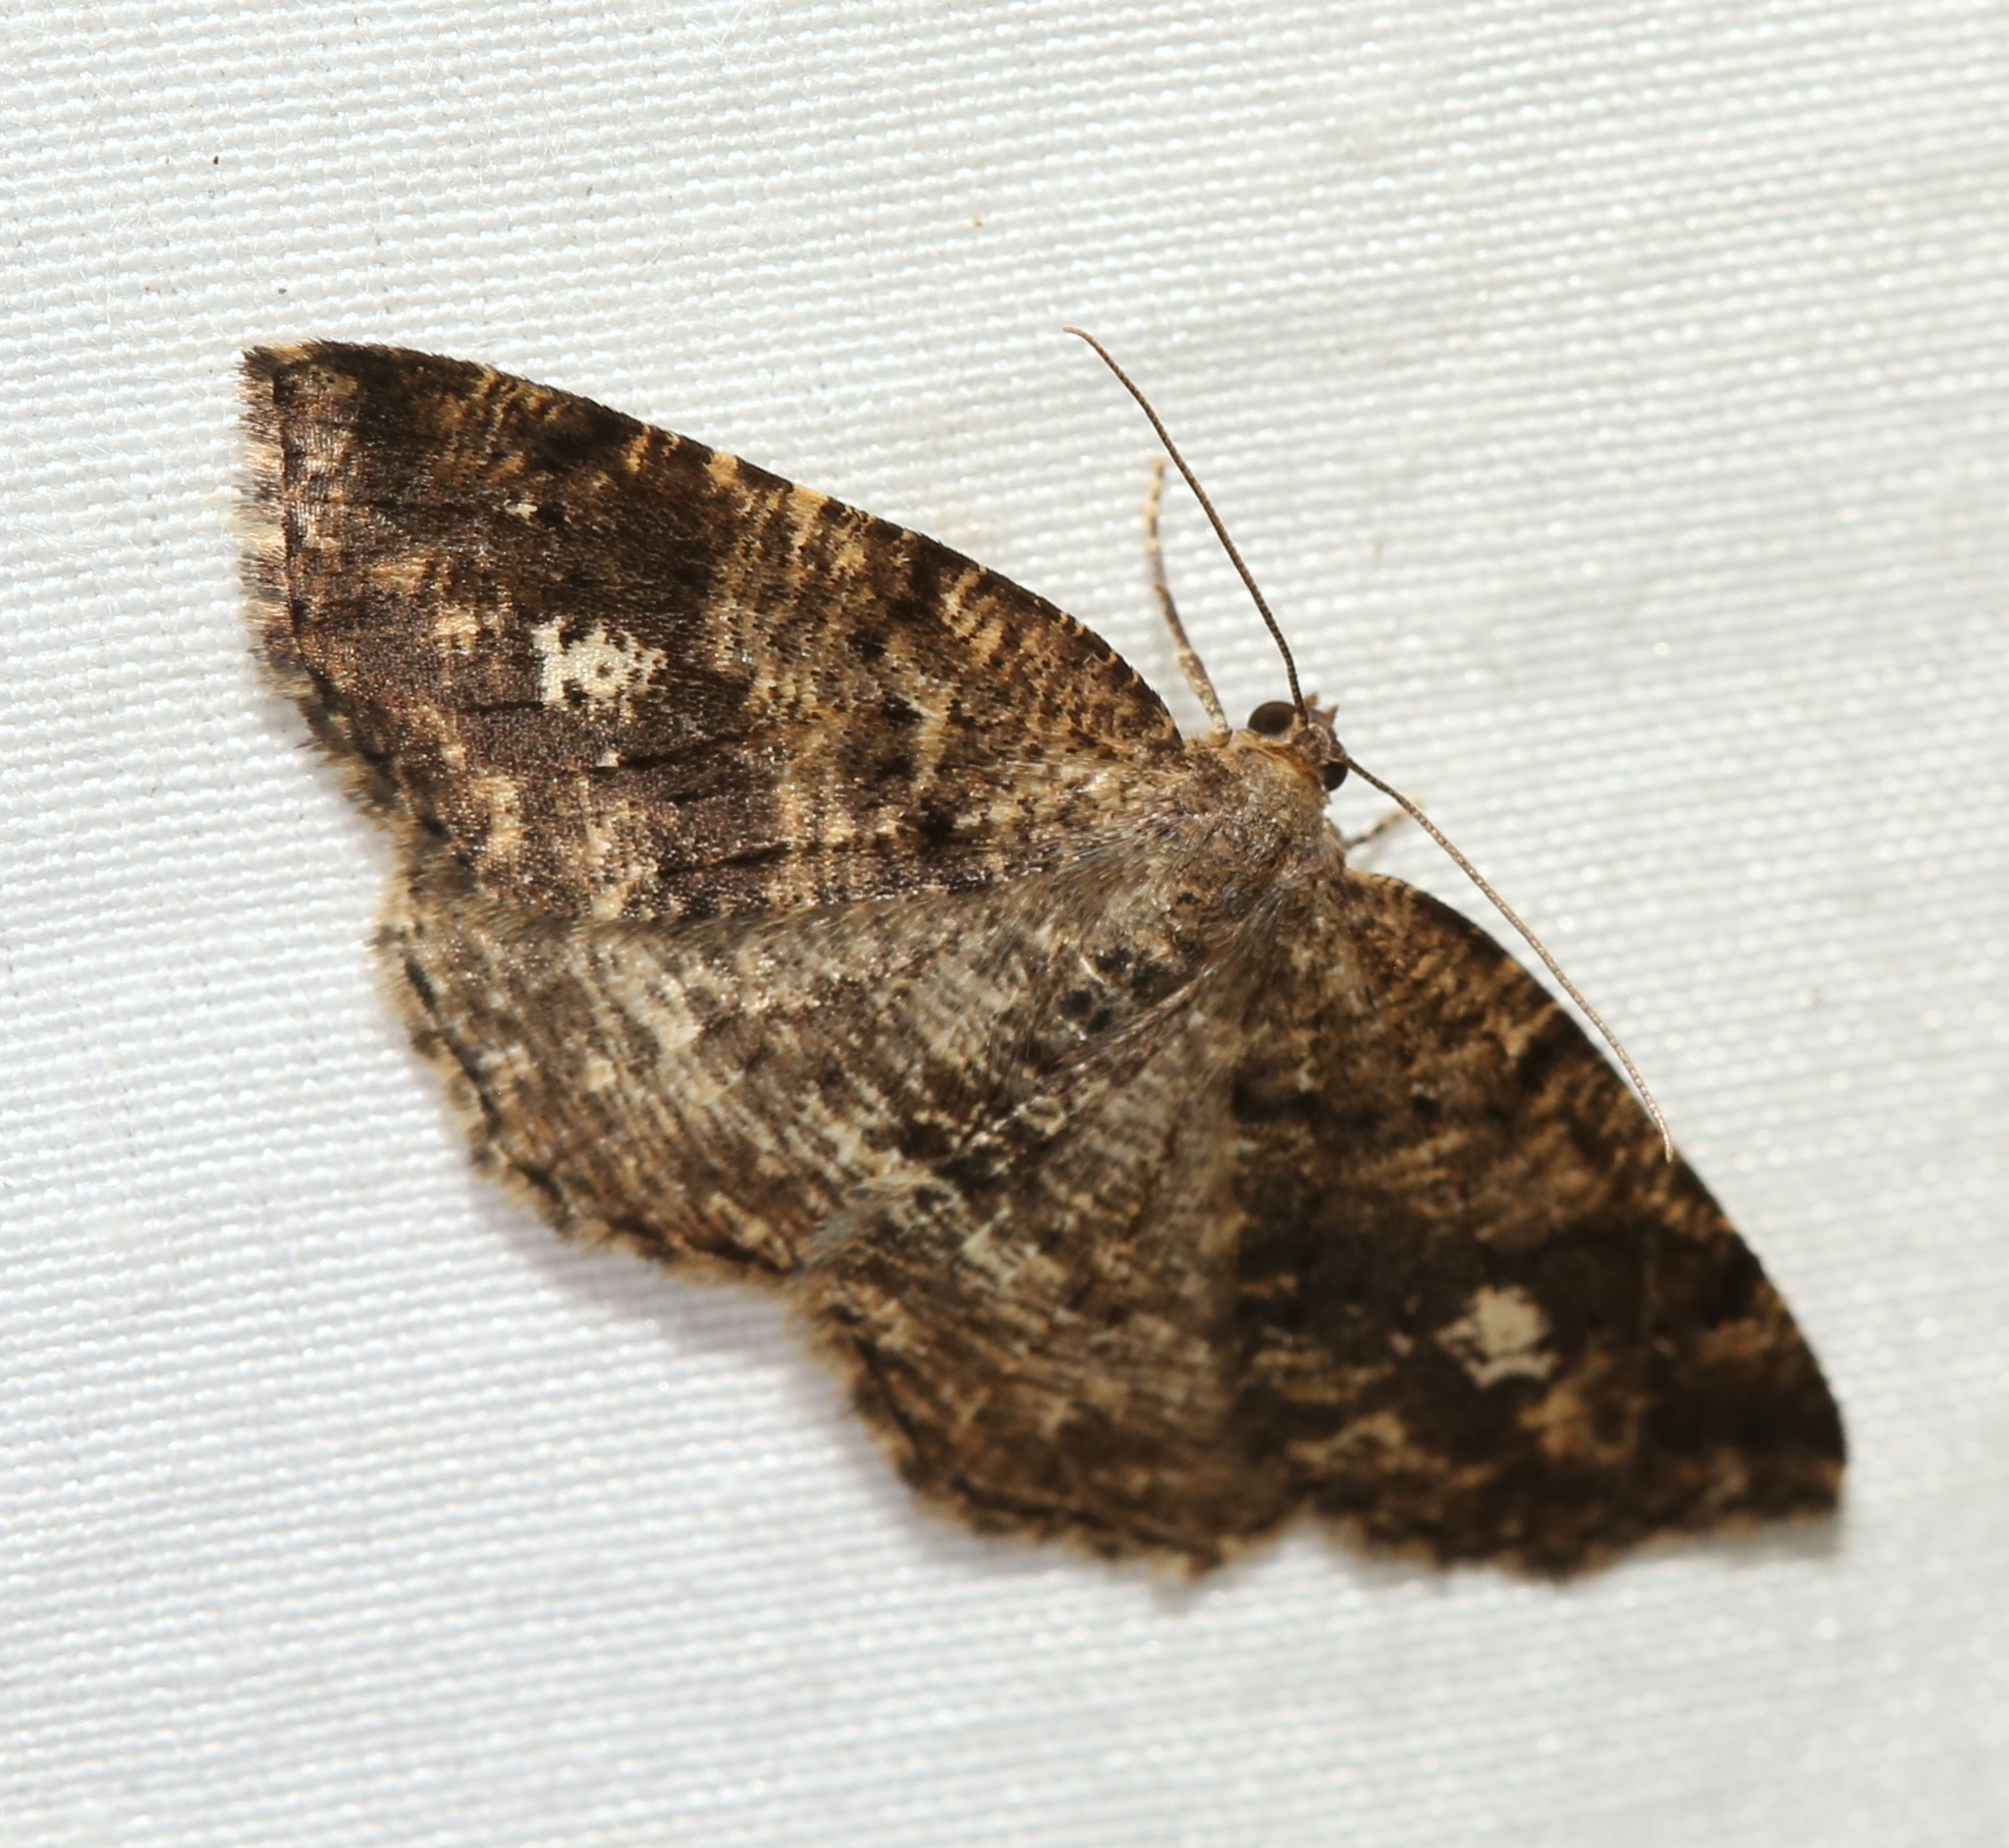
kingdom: Animalia
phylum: Arthropoda
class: Insecta
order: Lepidoptera
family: Geometridae
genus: Homochlodes
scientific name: Homochlodes fritillaria
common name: Pale homochlodes
